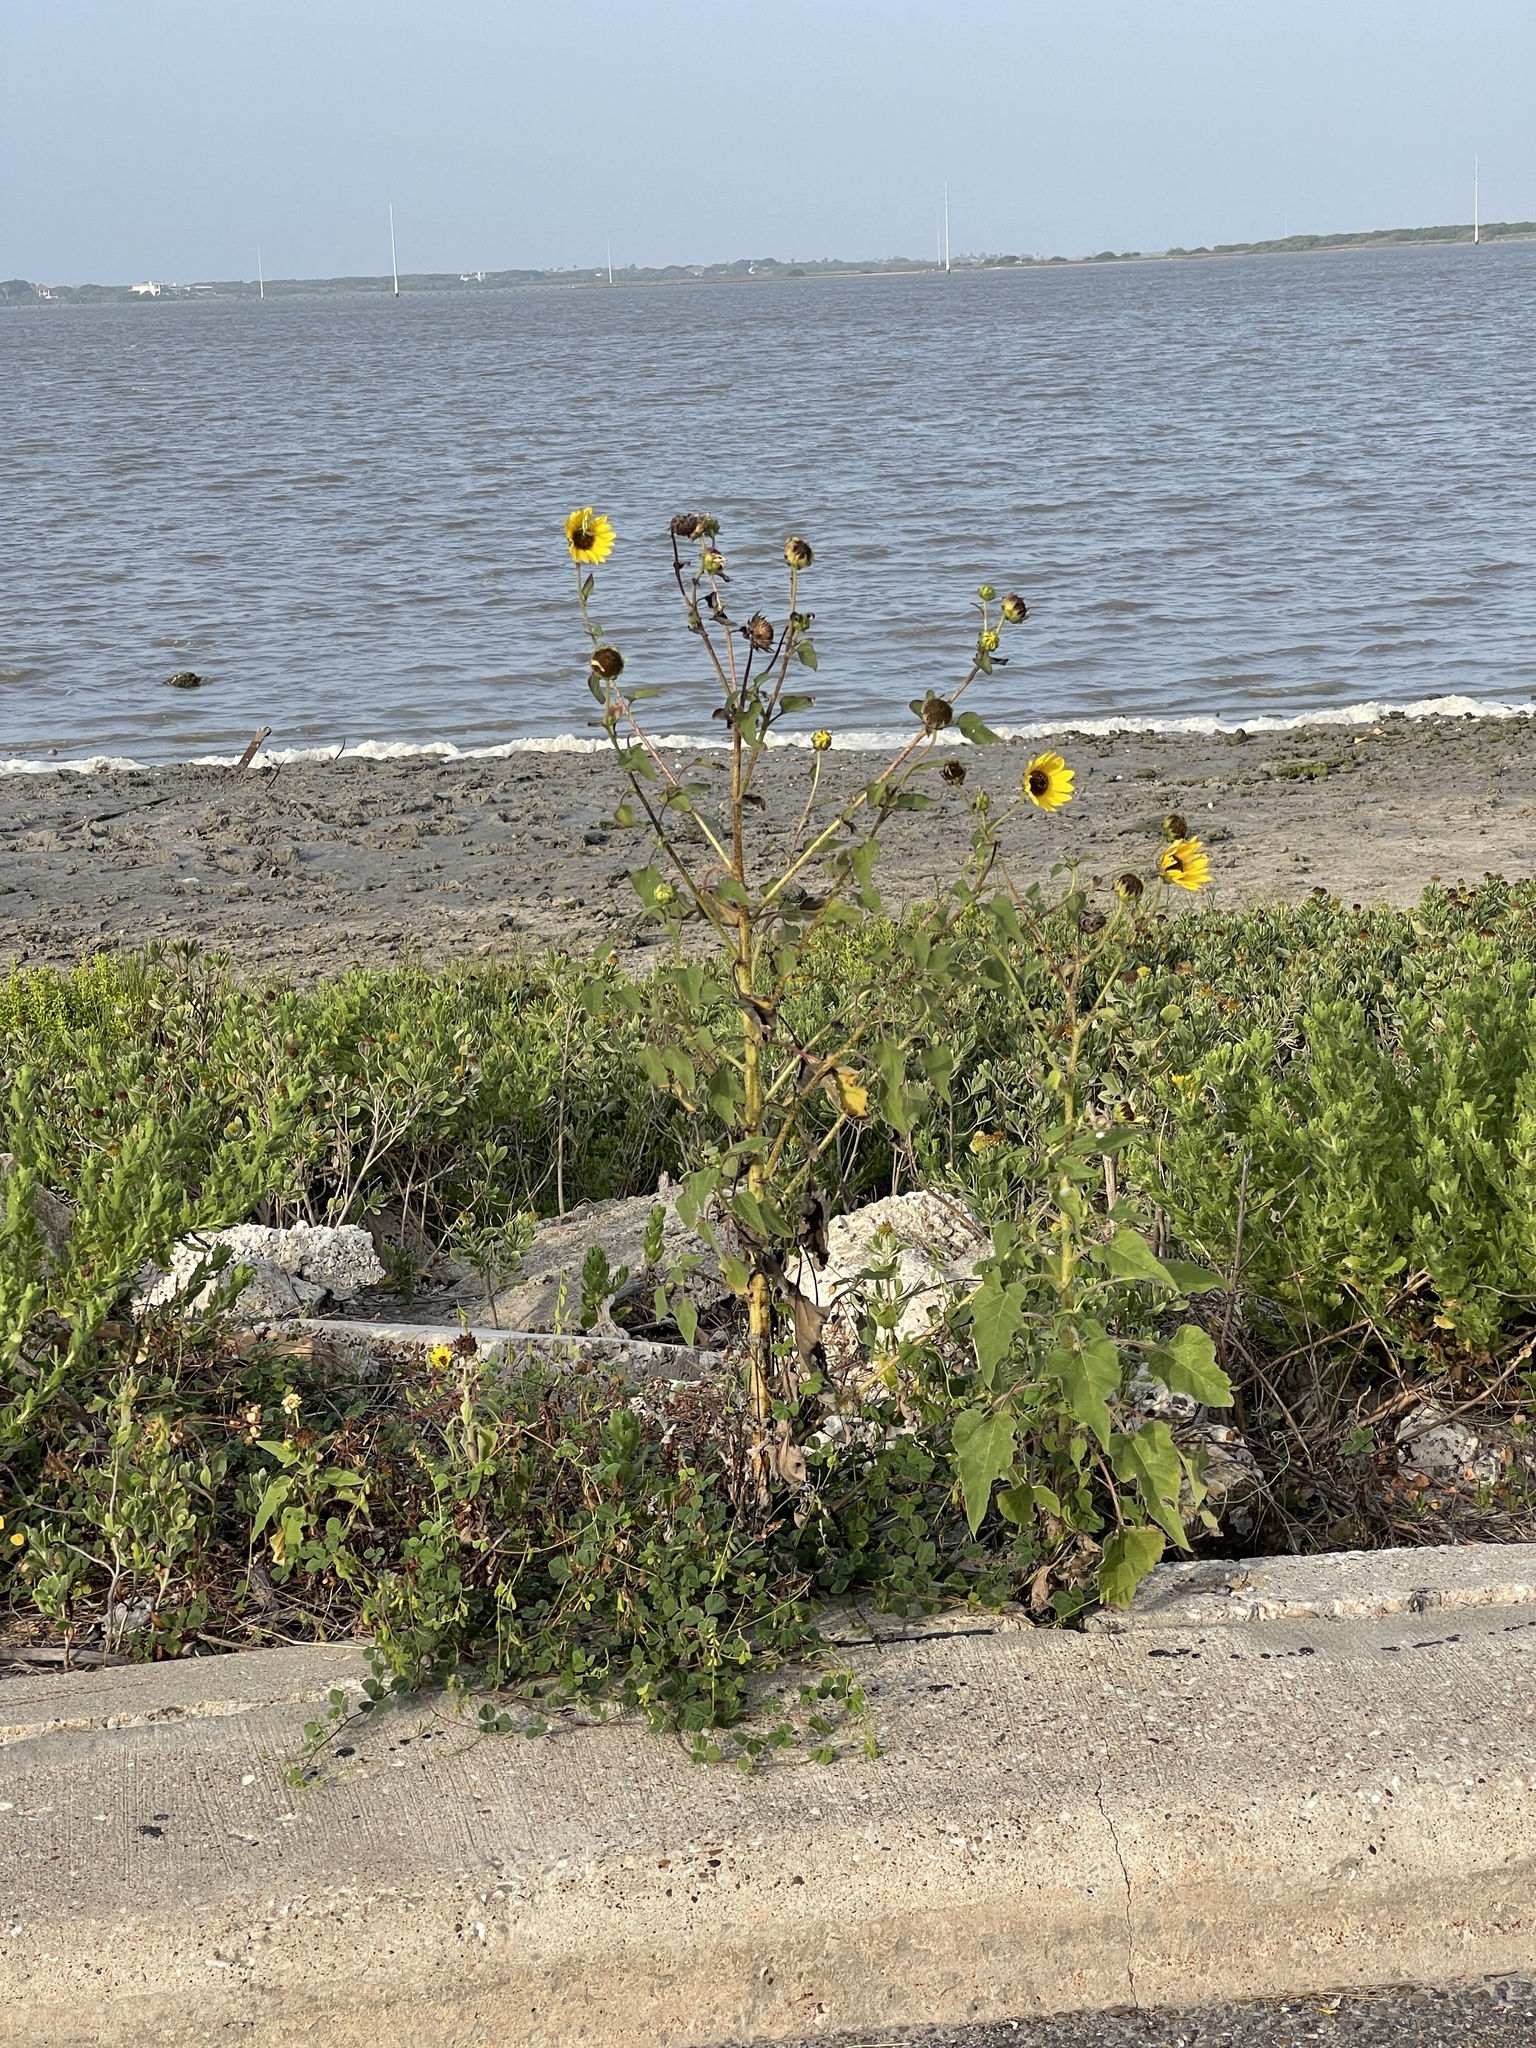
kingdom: Plantae
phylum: Tracheophyta
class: Magnoliopsida
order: Asterales
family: Asteraceae
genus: Helianthus
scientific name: Helianthus annuus
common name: Sunflower
